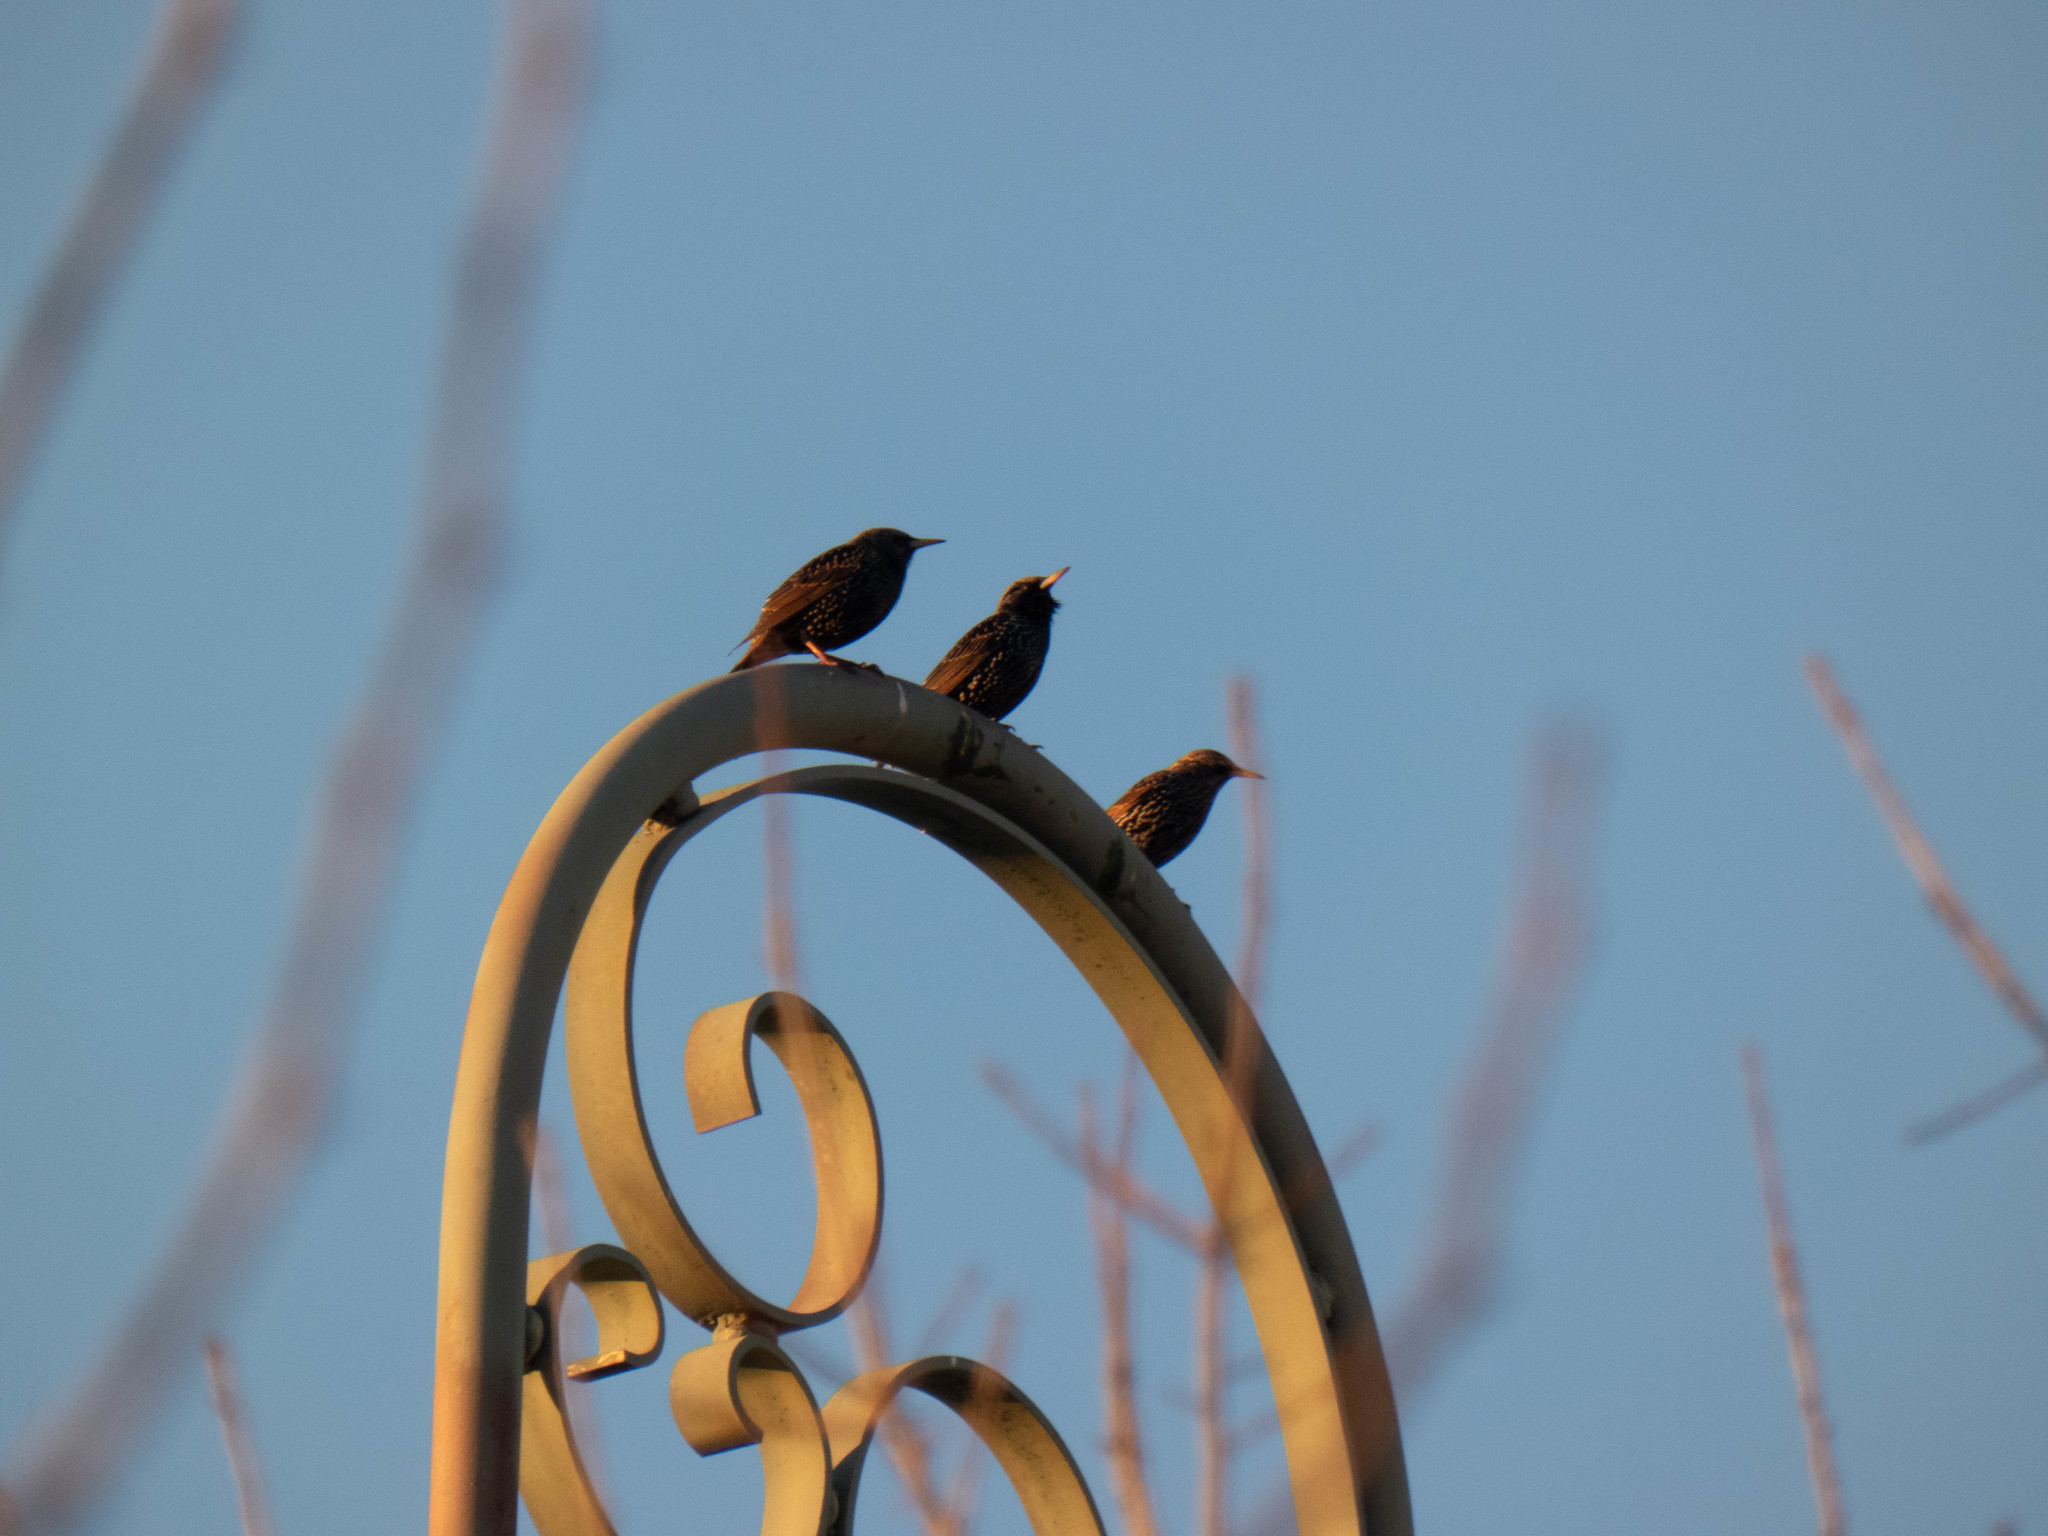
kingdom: Animalia
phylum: Chordata
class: Aves
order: Passeriformes
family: Sturnidae
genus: Sturnus
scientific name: Sturnus vulgaris
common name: Common starling
